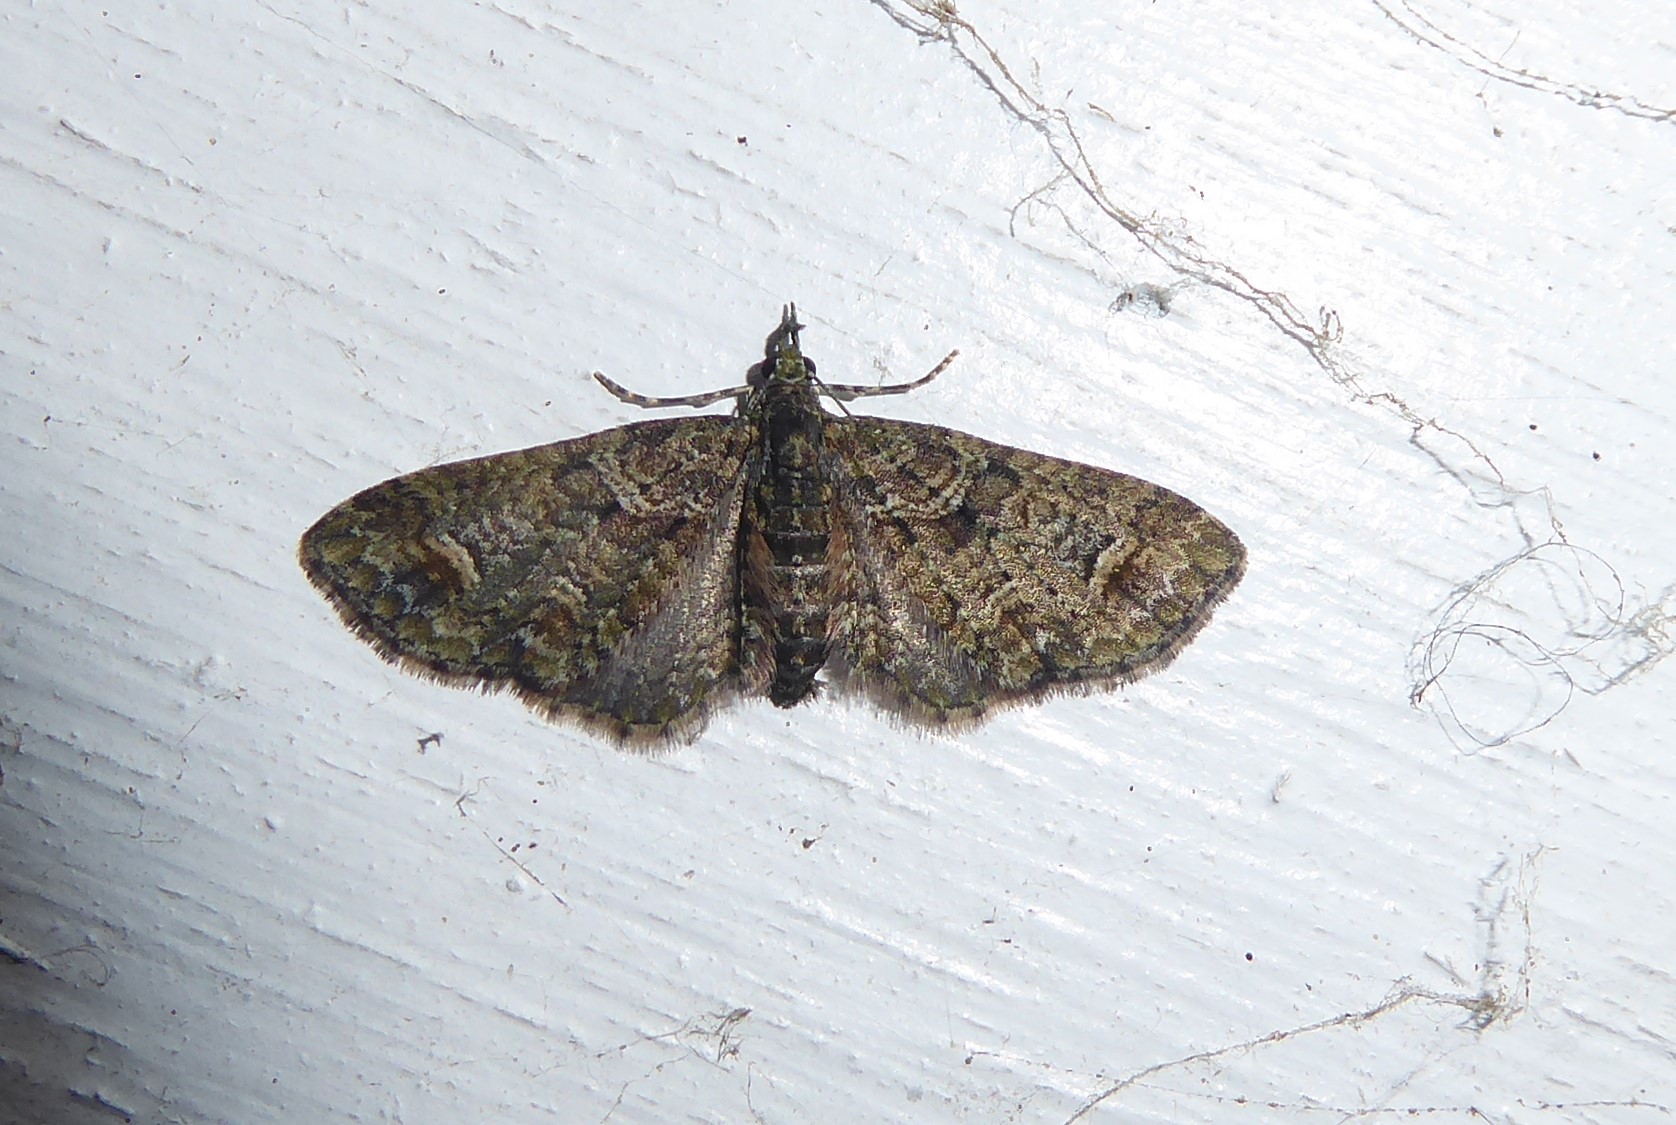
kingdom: Animalia
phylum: Arthropoda
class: Insecta
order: Lepidoptera
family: Geometridae
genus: Idaea
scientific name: Idaea mutanda
